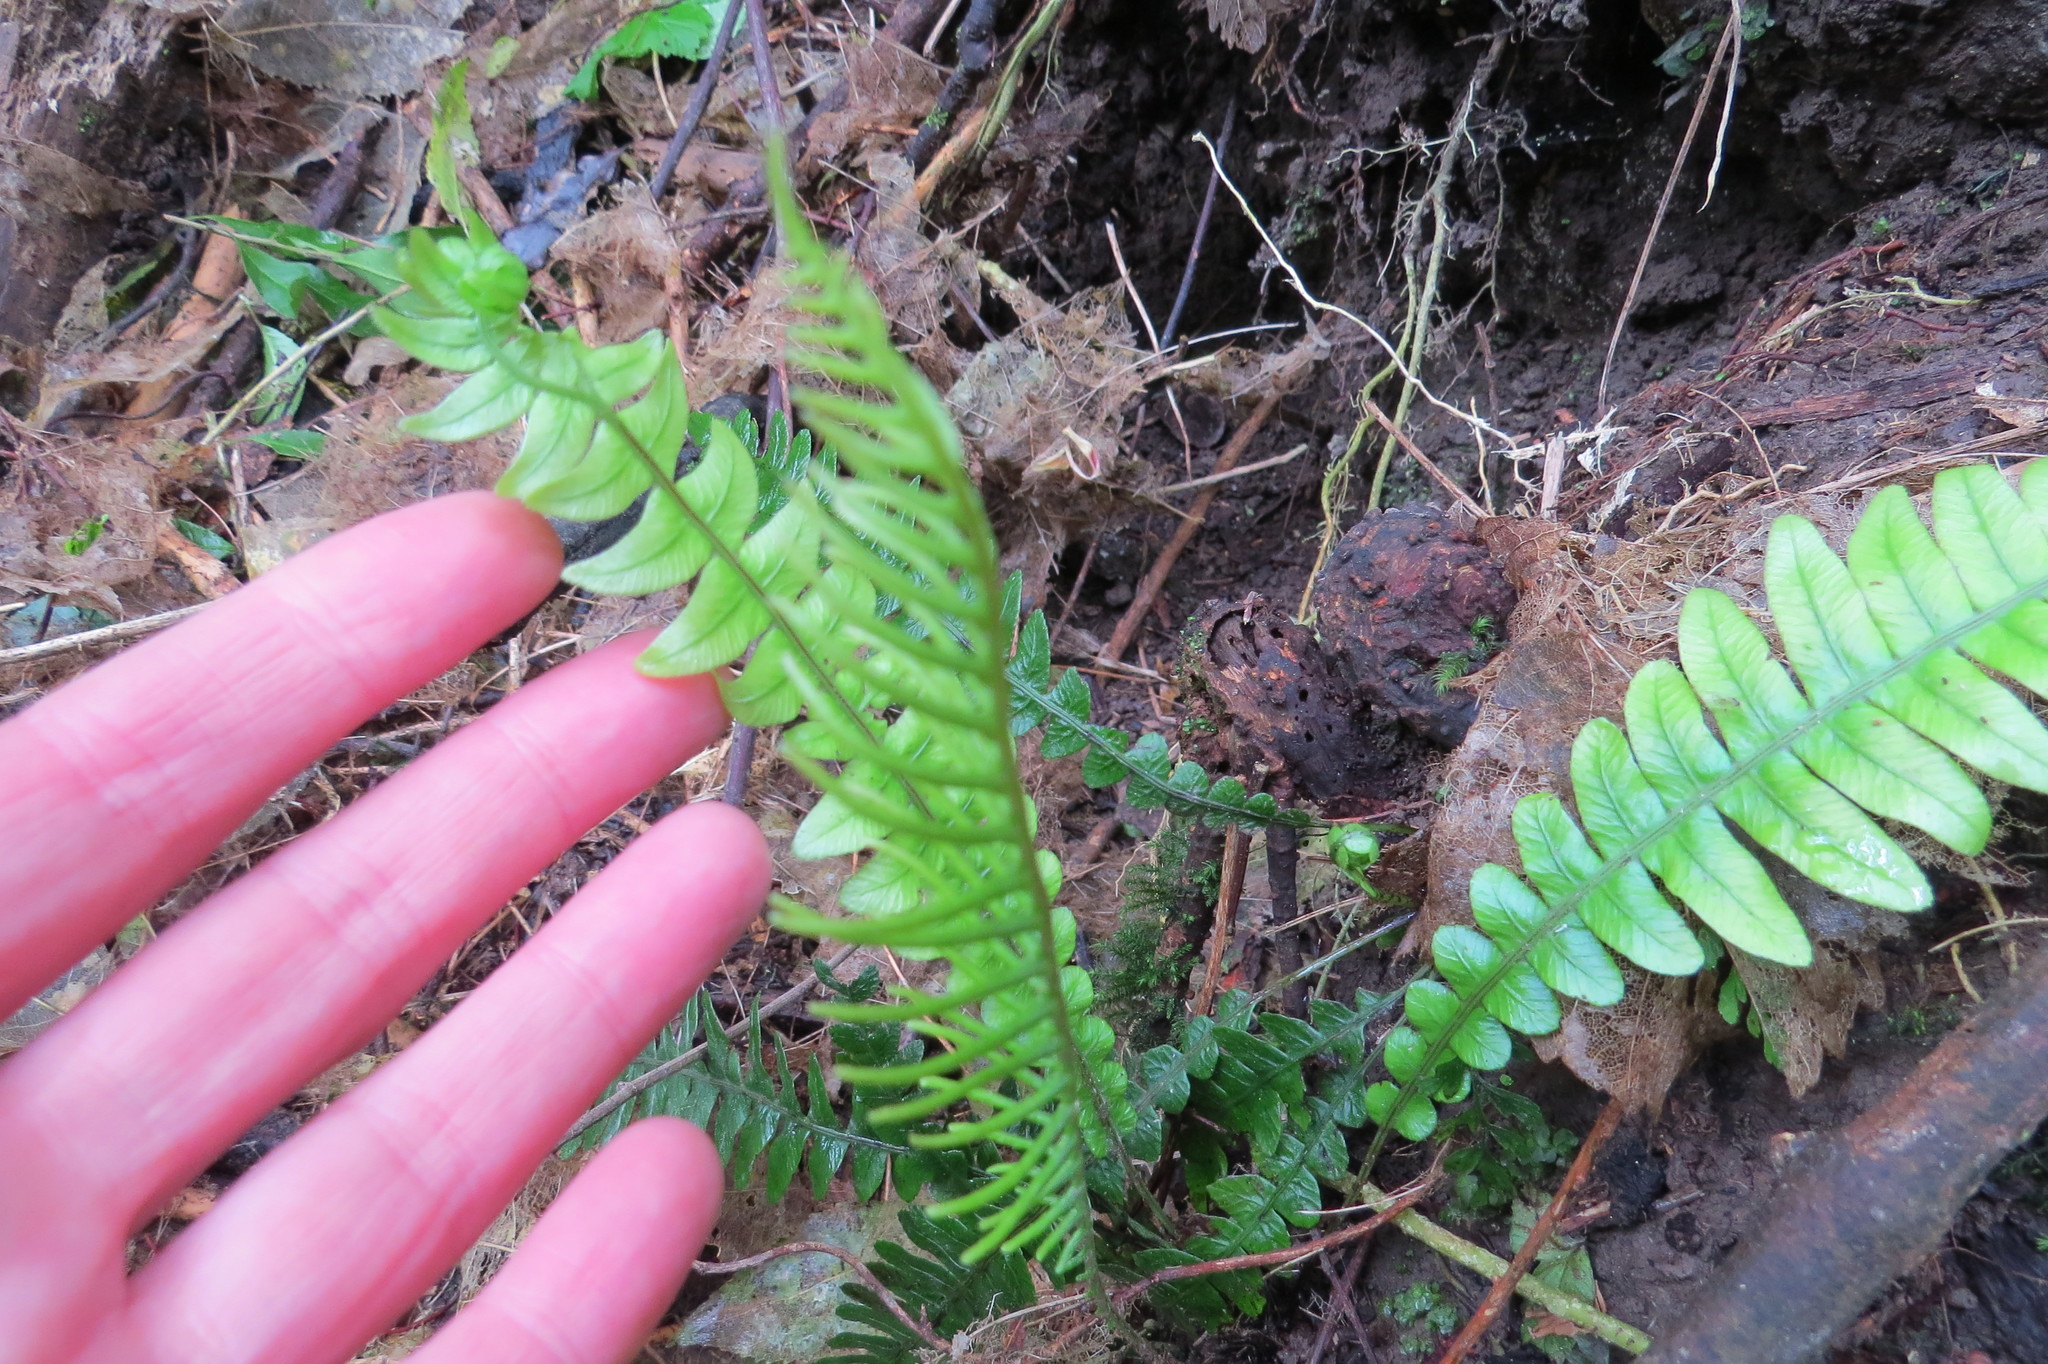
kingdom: Plantae
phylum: Tracheophyta
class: Polypodiopsida
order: Polypodiales
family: Blechnaceae
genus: Austroblechnum
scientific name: Austroblechnum lanceolatum
